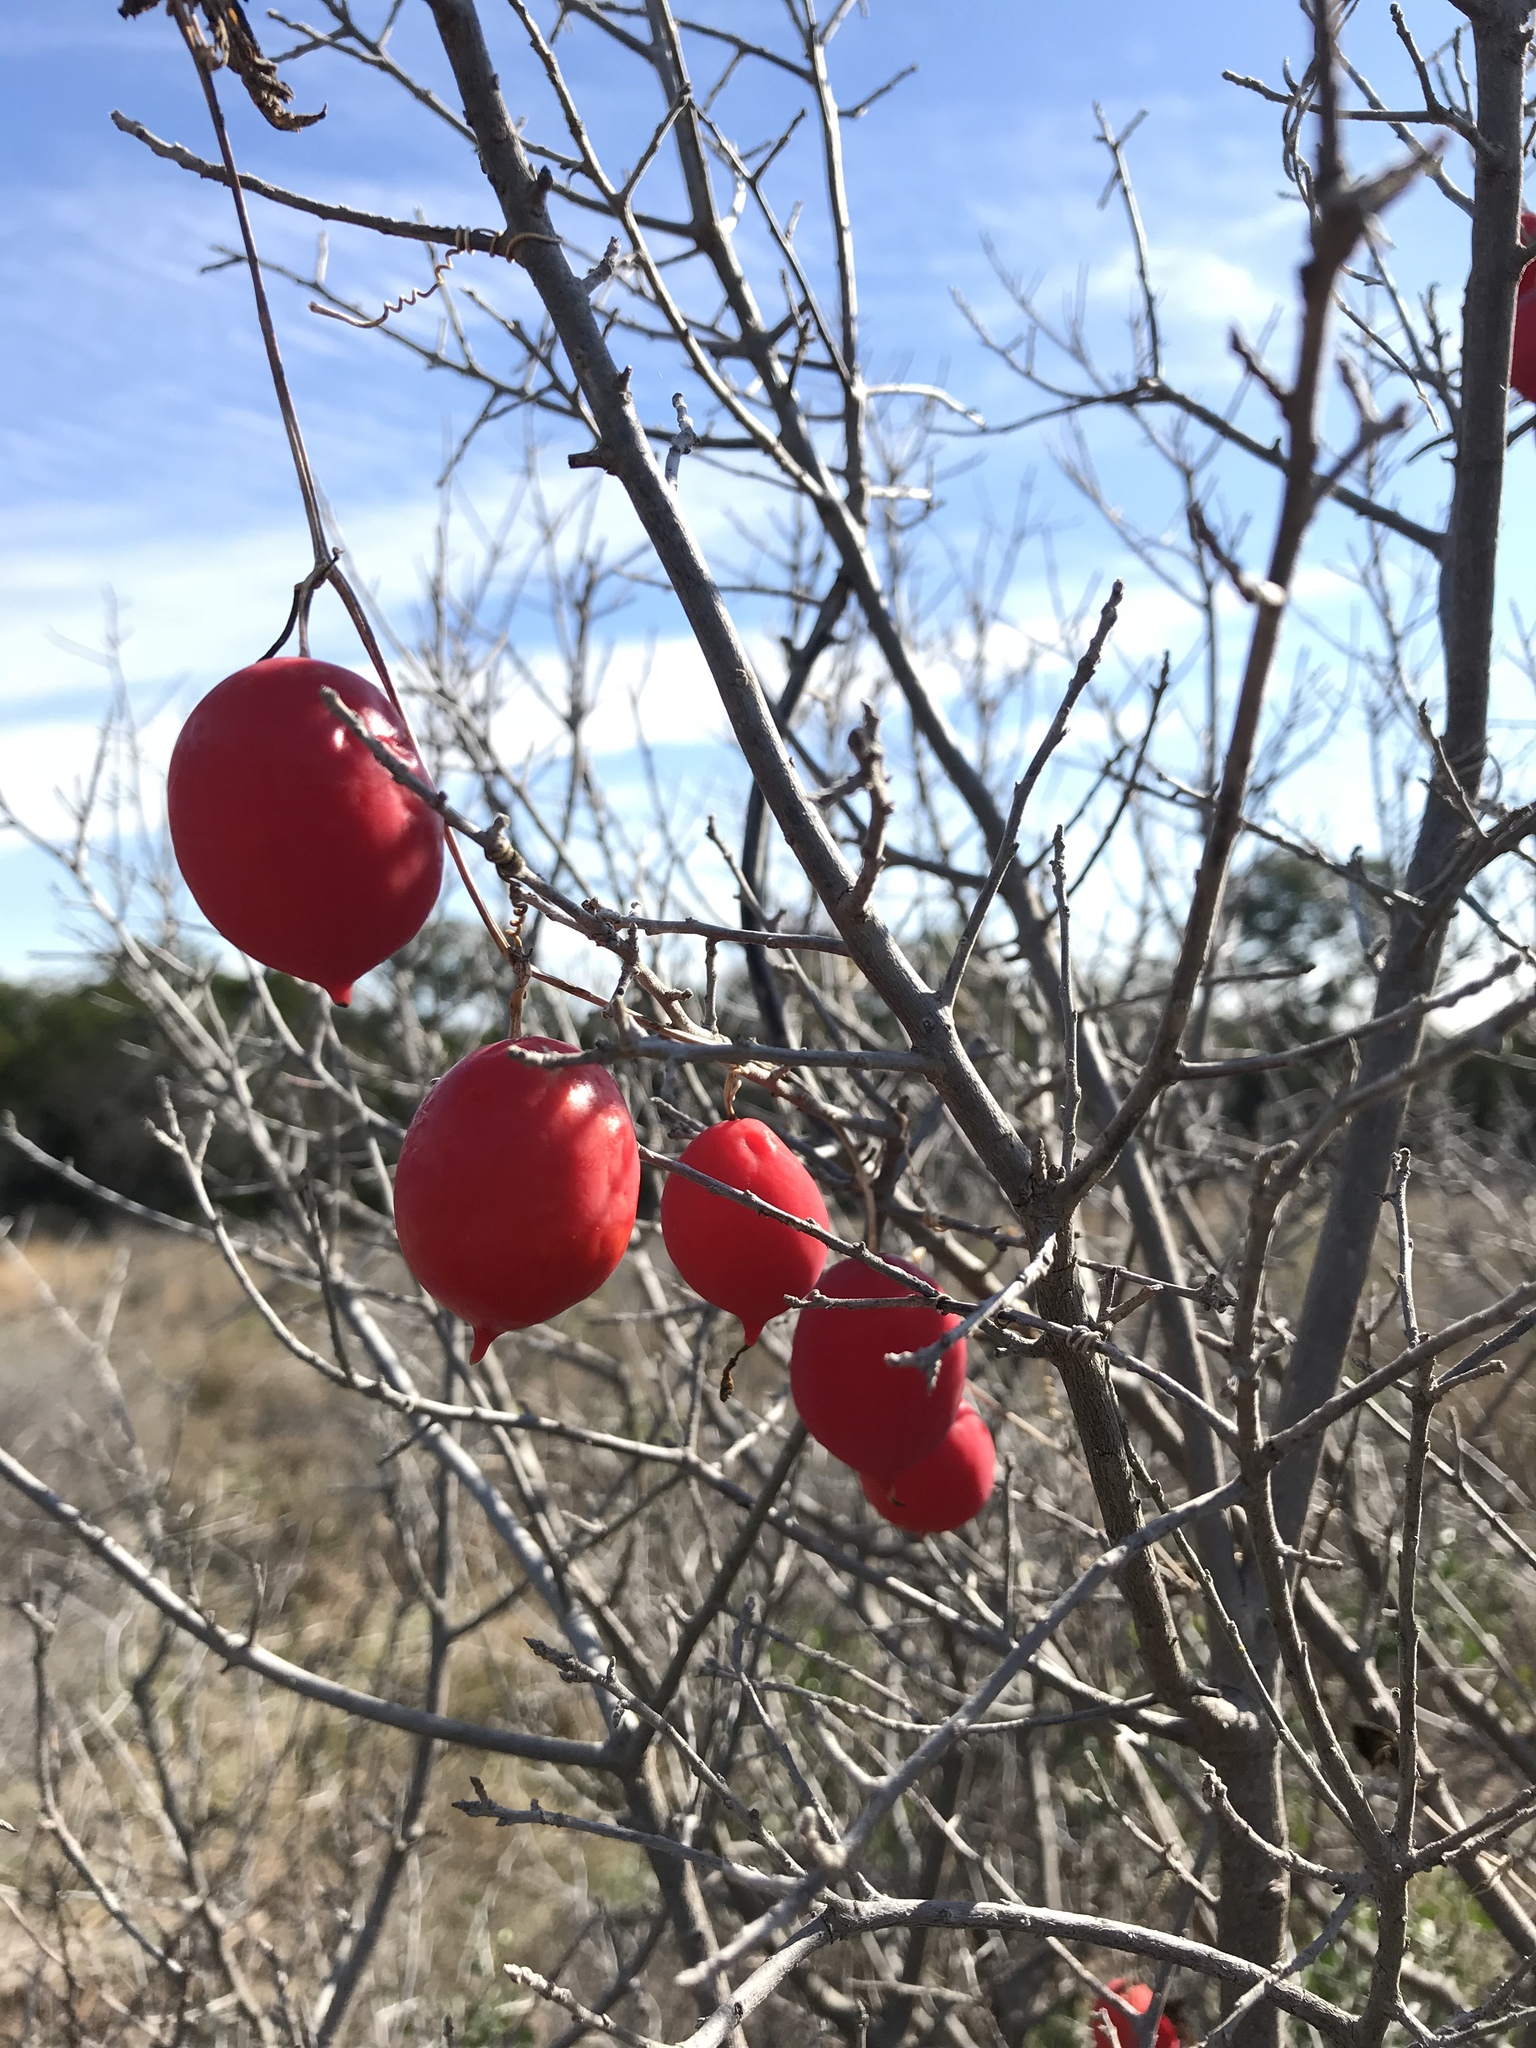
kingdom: Plantae
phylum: Tracheophyta
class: Magnoliopsida
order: Cucurbitales
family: Cucurbitaceae
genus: Ibervillea
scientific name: Ibervillea lindheimeri
